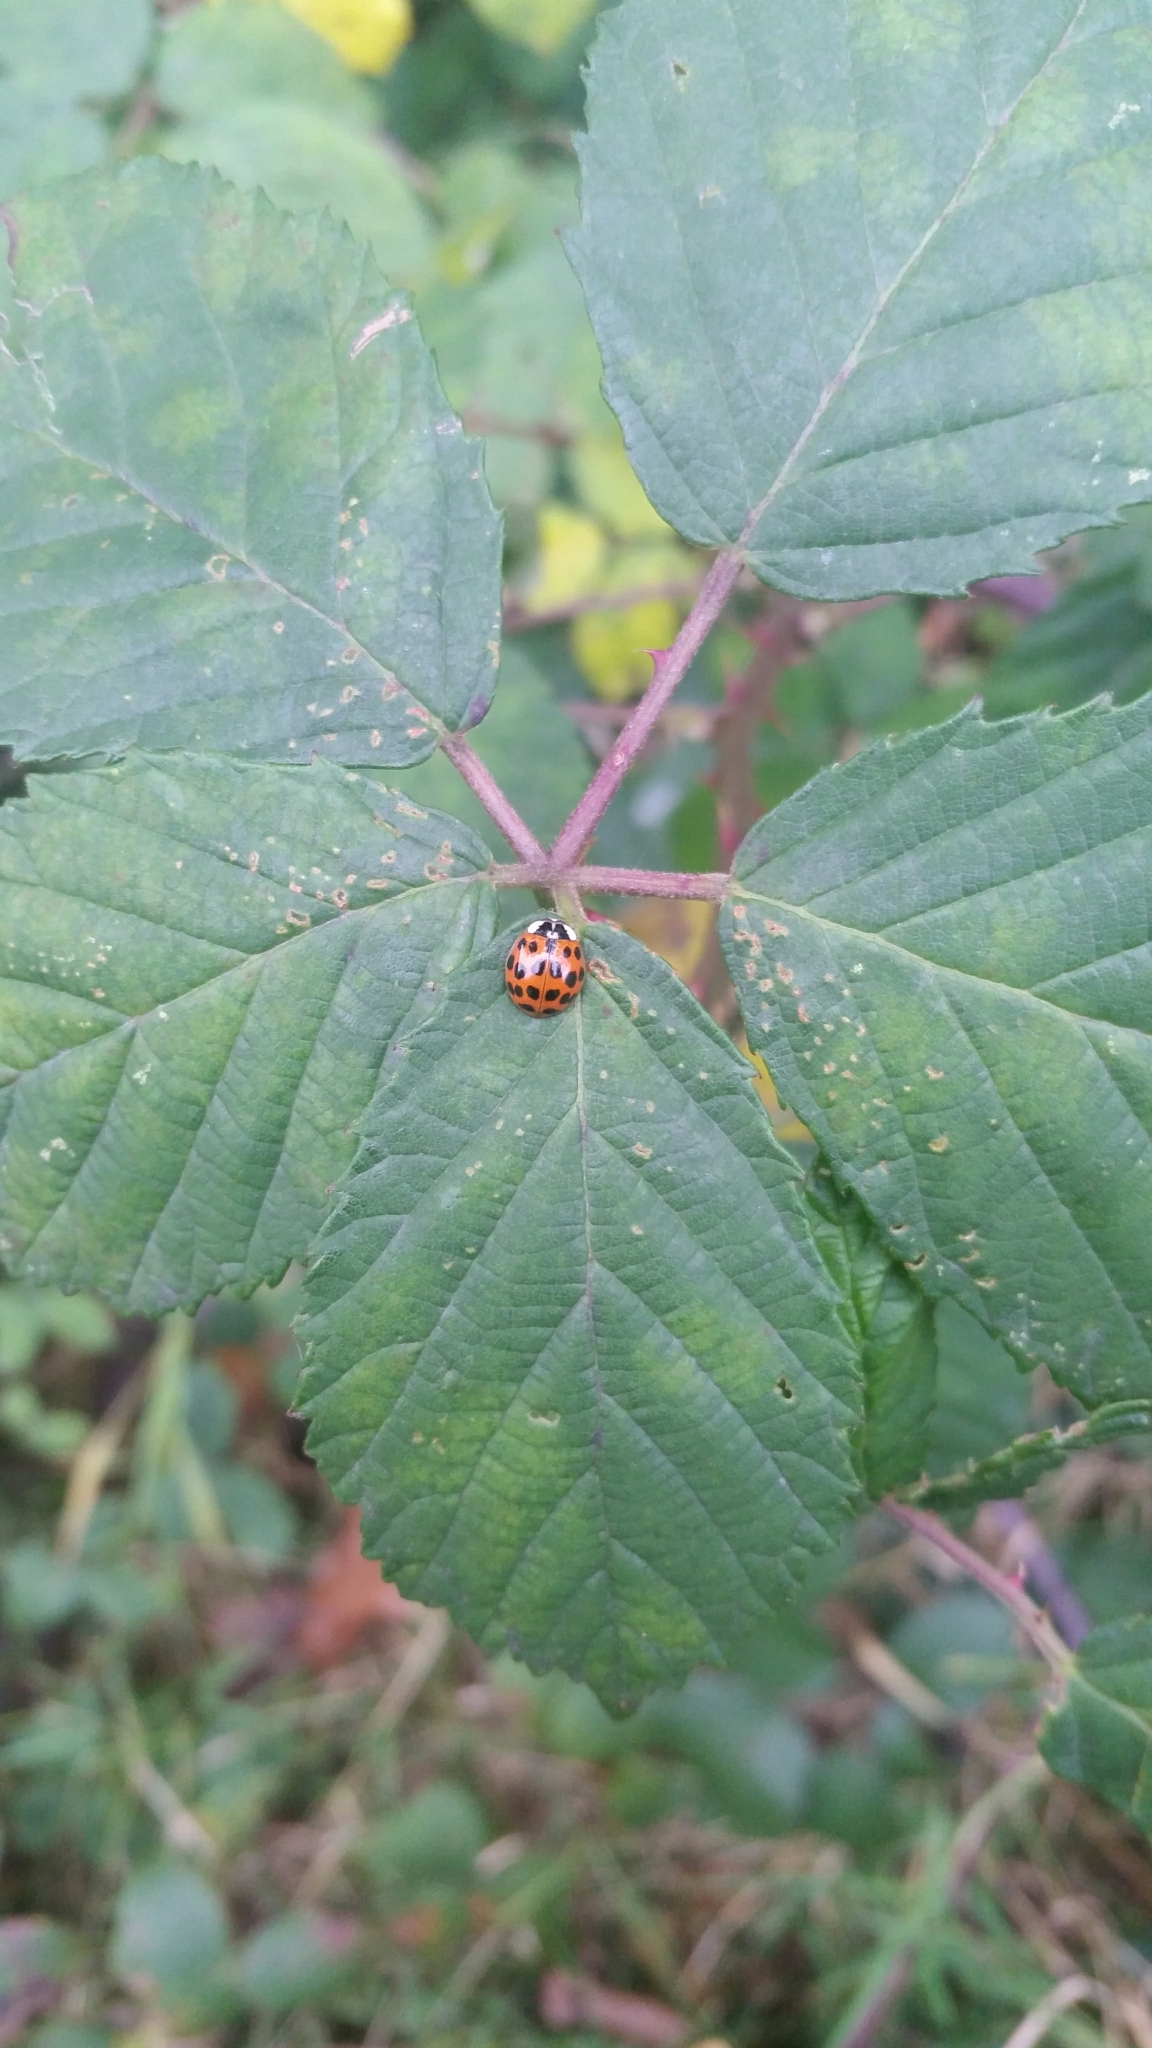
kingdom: Animalia
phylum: Arthropoda
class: Insecta
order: Coleoptera
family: Coccinellidae
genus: Harmonia
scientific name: Harmonia axyridis
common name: Harlequin ladybird
